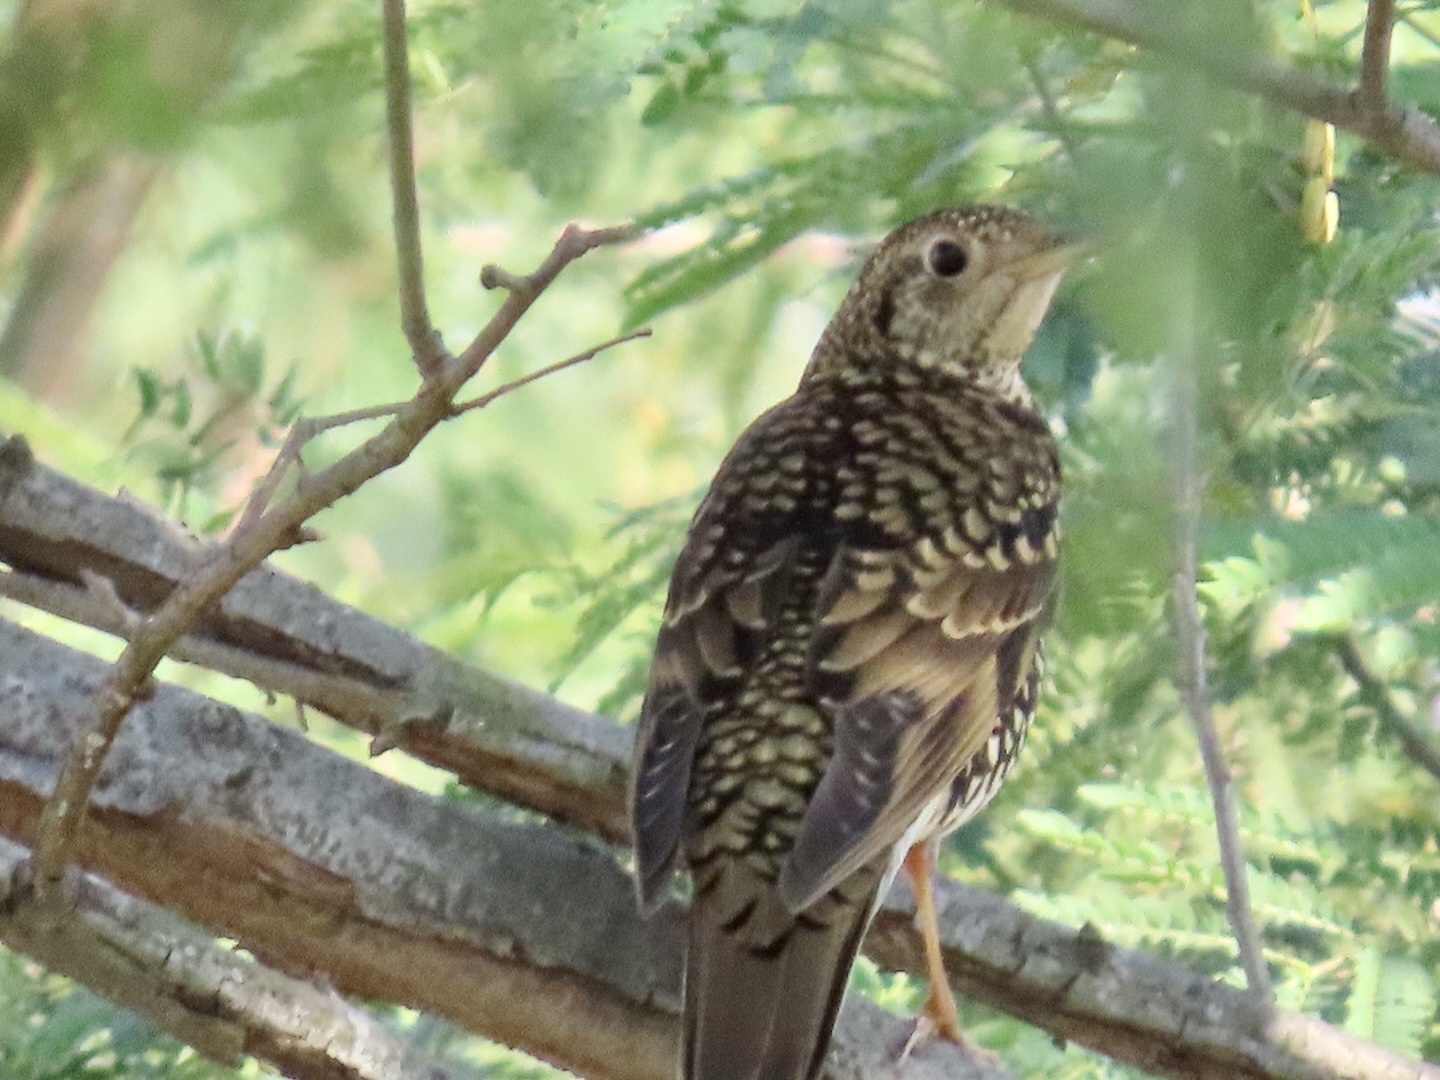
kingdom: Animalia
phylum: Chordata
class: Aves
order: Passeriformes
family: Turdidae
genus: Zoothera
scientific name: Zoothera aurea
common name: White's thrush
